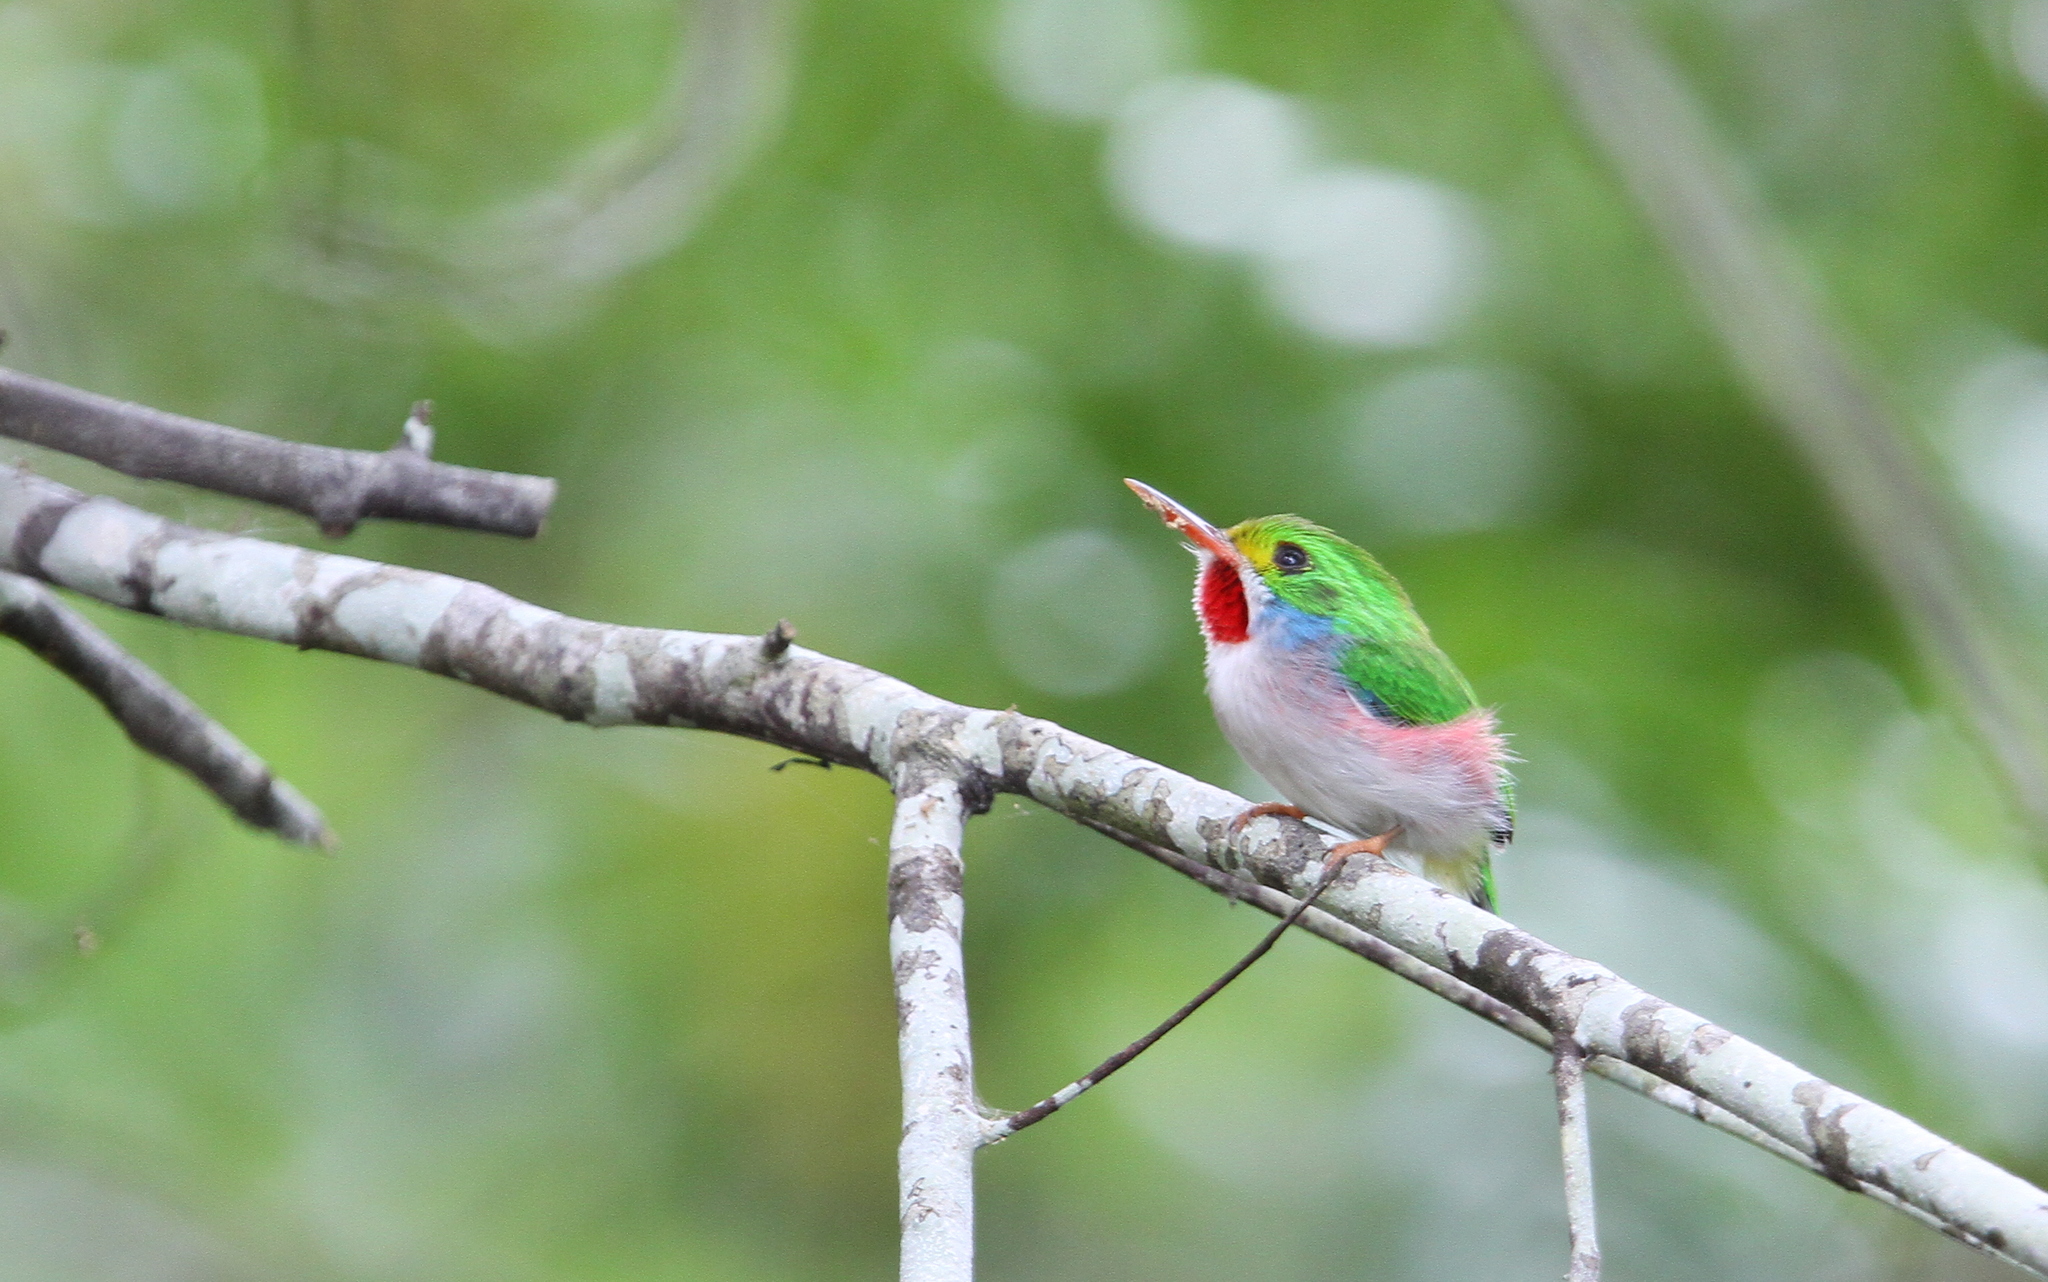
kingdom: Animalia
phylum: Chordata
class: Aves
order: Coraciiformes
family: Todidae
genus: Todus
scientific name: Todus multicolor
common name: Cuban tody
